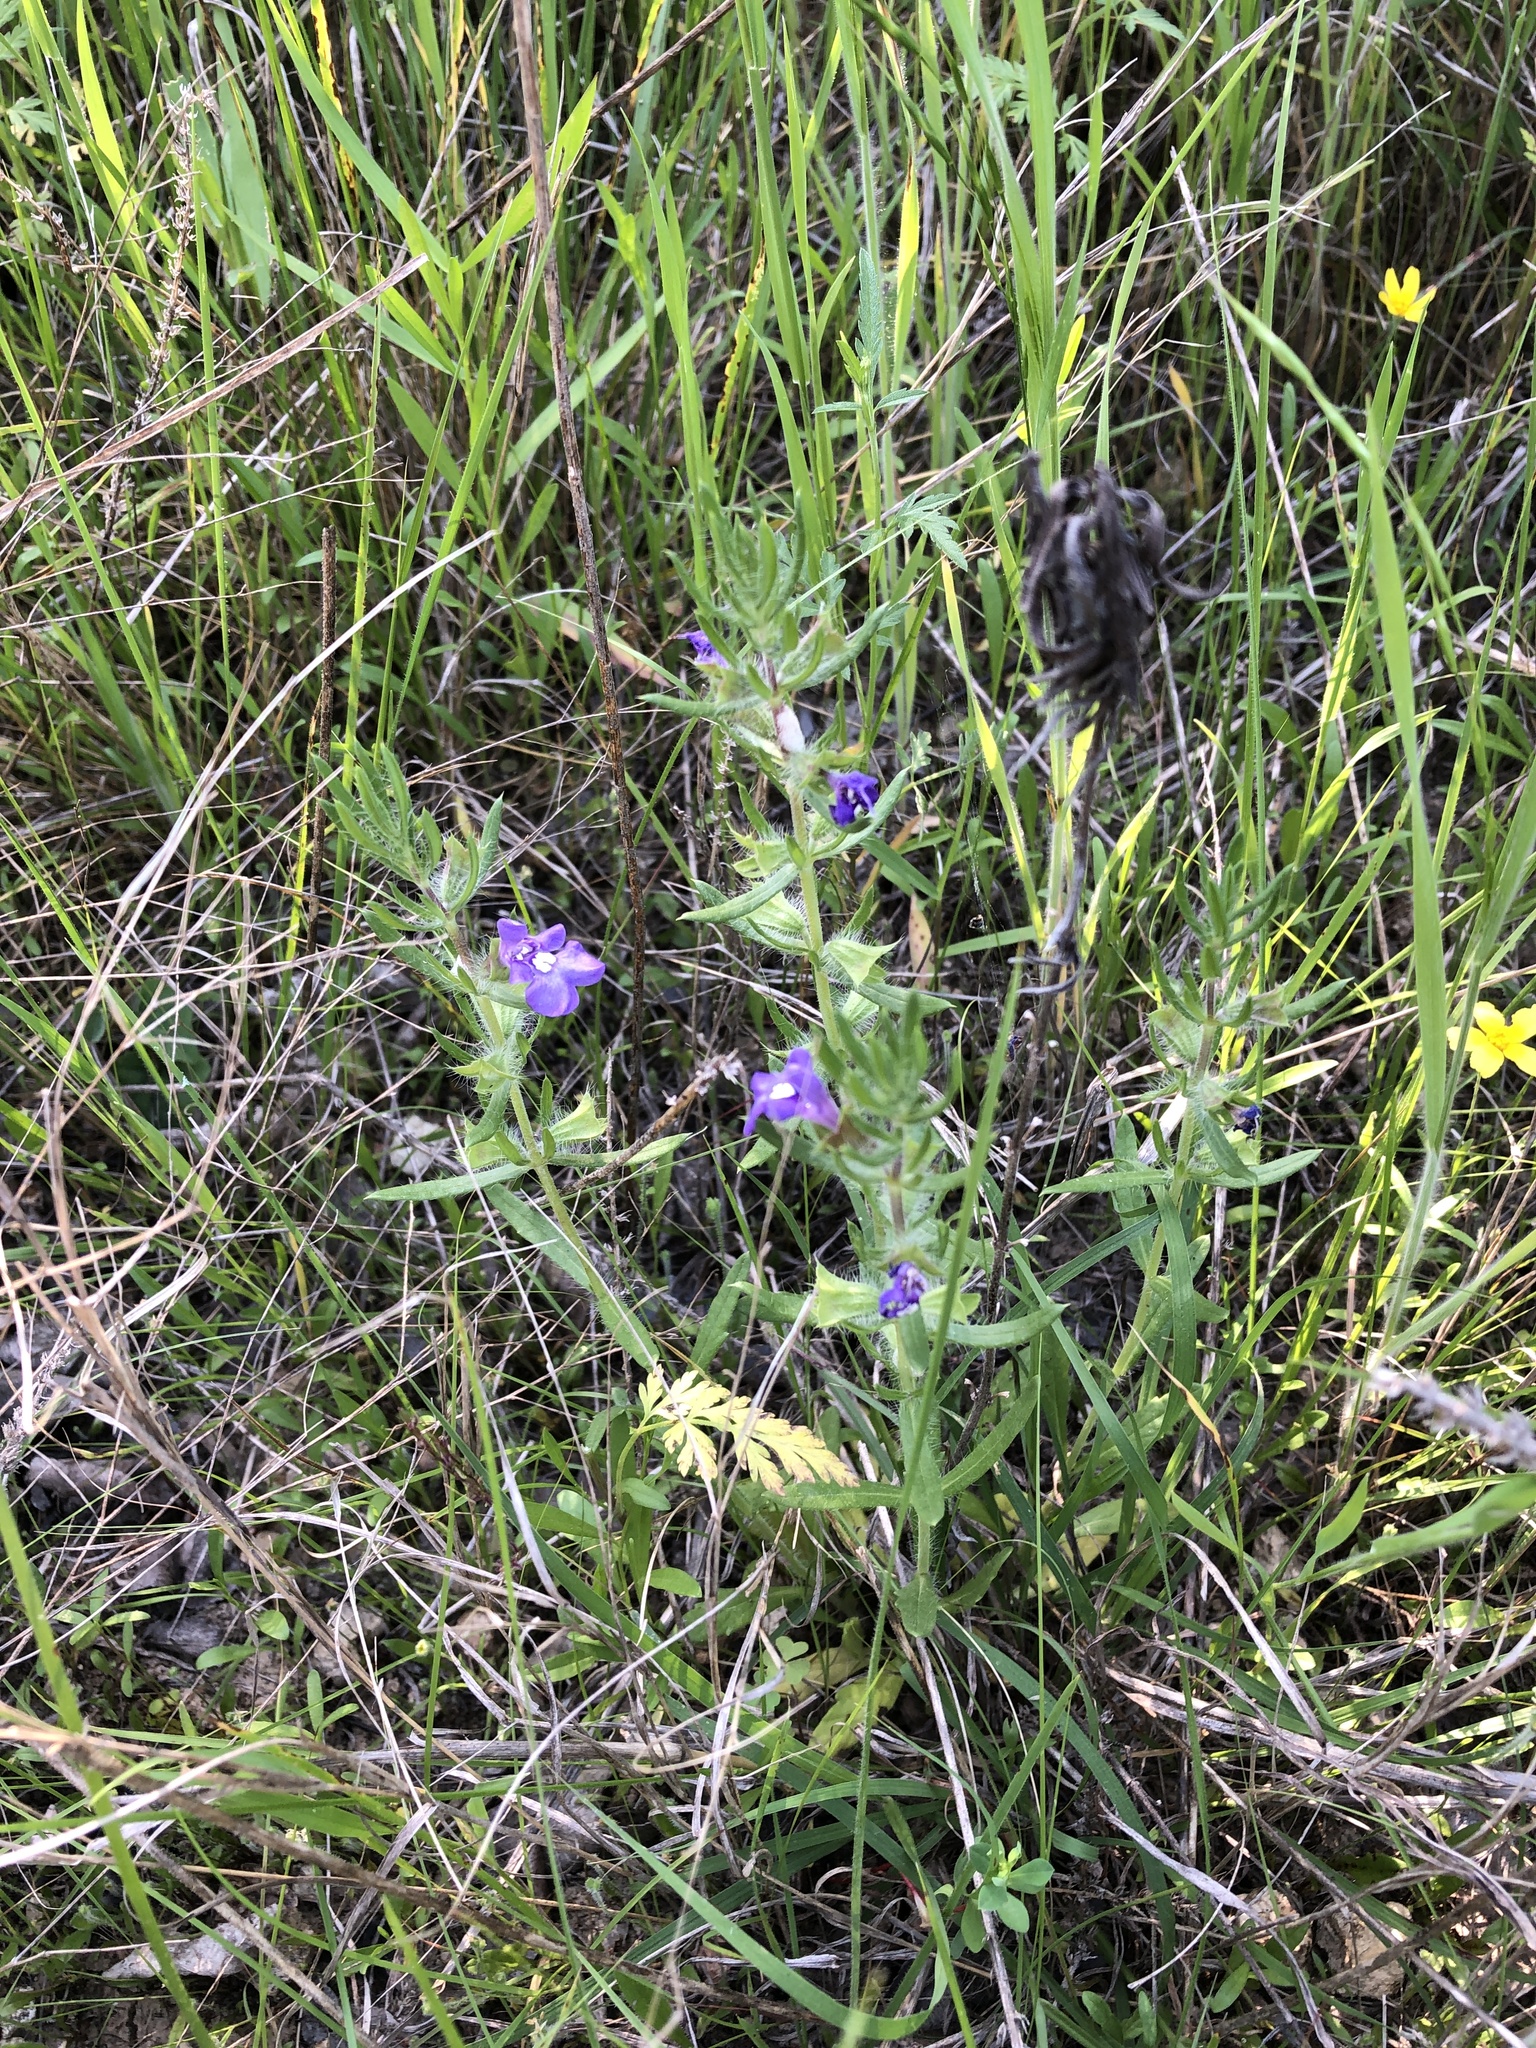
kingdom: Plantae
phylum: Tracheophyta
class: Magnoliopsida
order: Lamiales
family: Lamiaceae
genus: Salvia
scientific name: Salvia texana
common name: Texas sage
